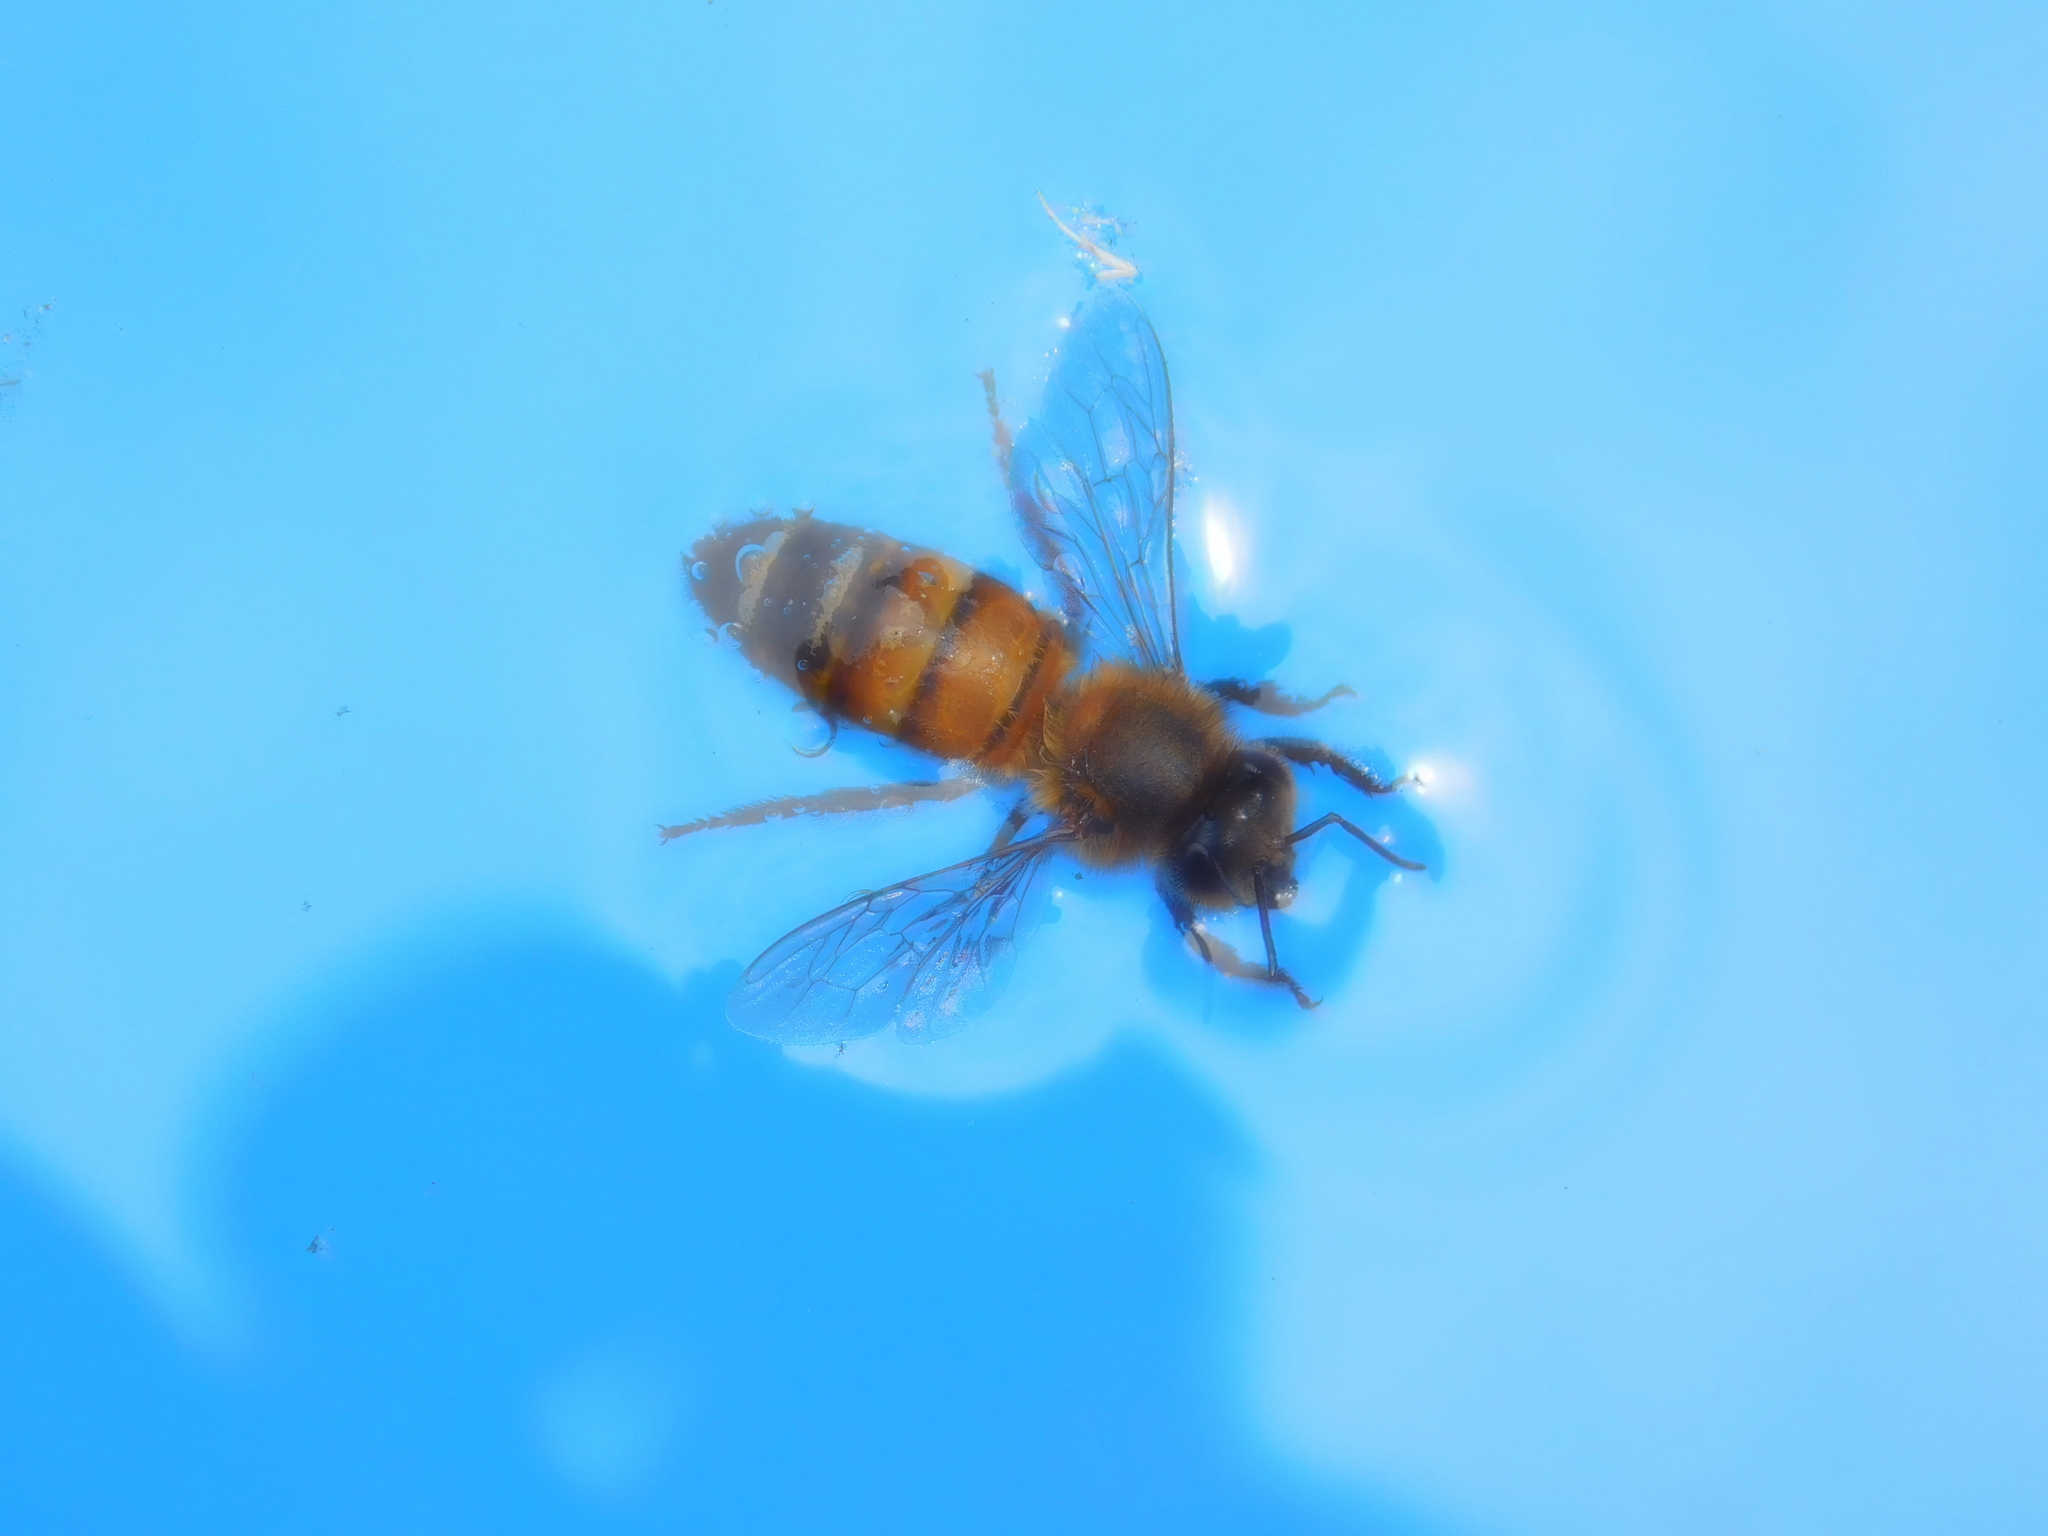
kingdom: Animalia
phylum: Arthropoda
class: Insecta
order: Hymenoptera
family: Apidae
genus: Apis
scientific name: Apis mellifera
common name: Honey bee
